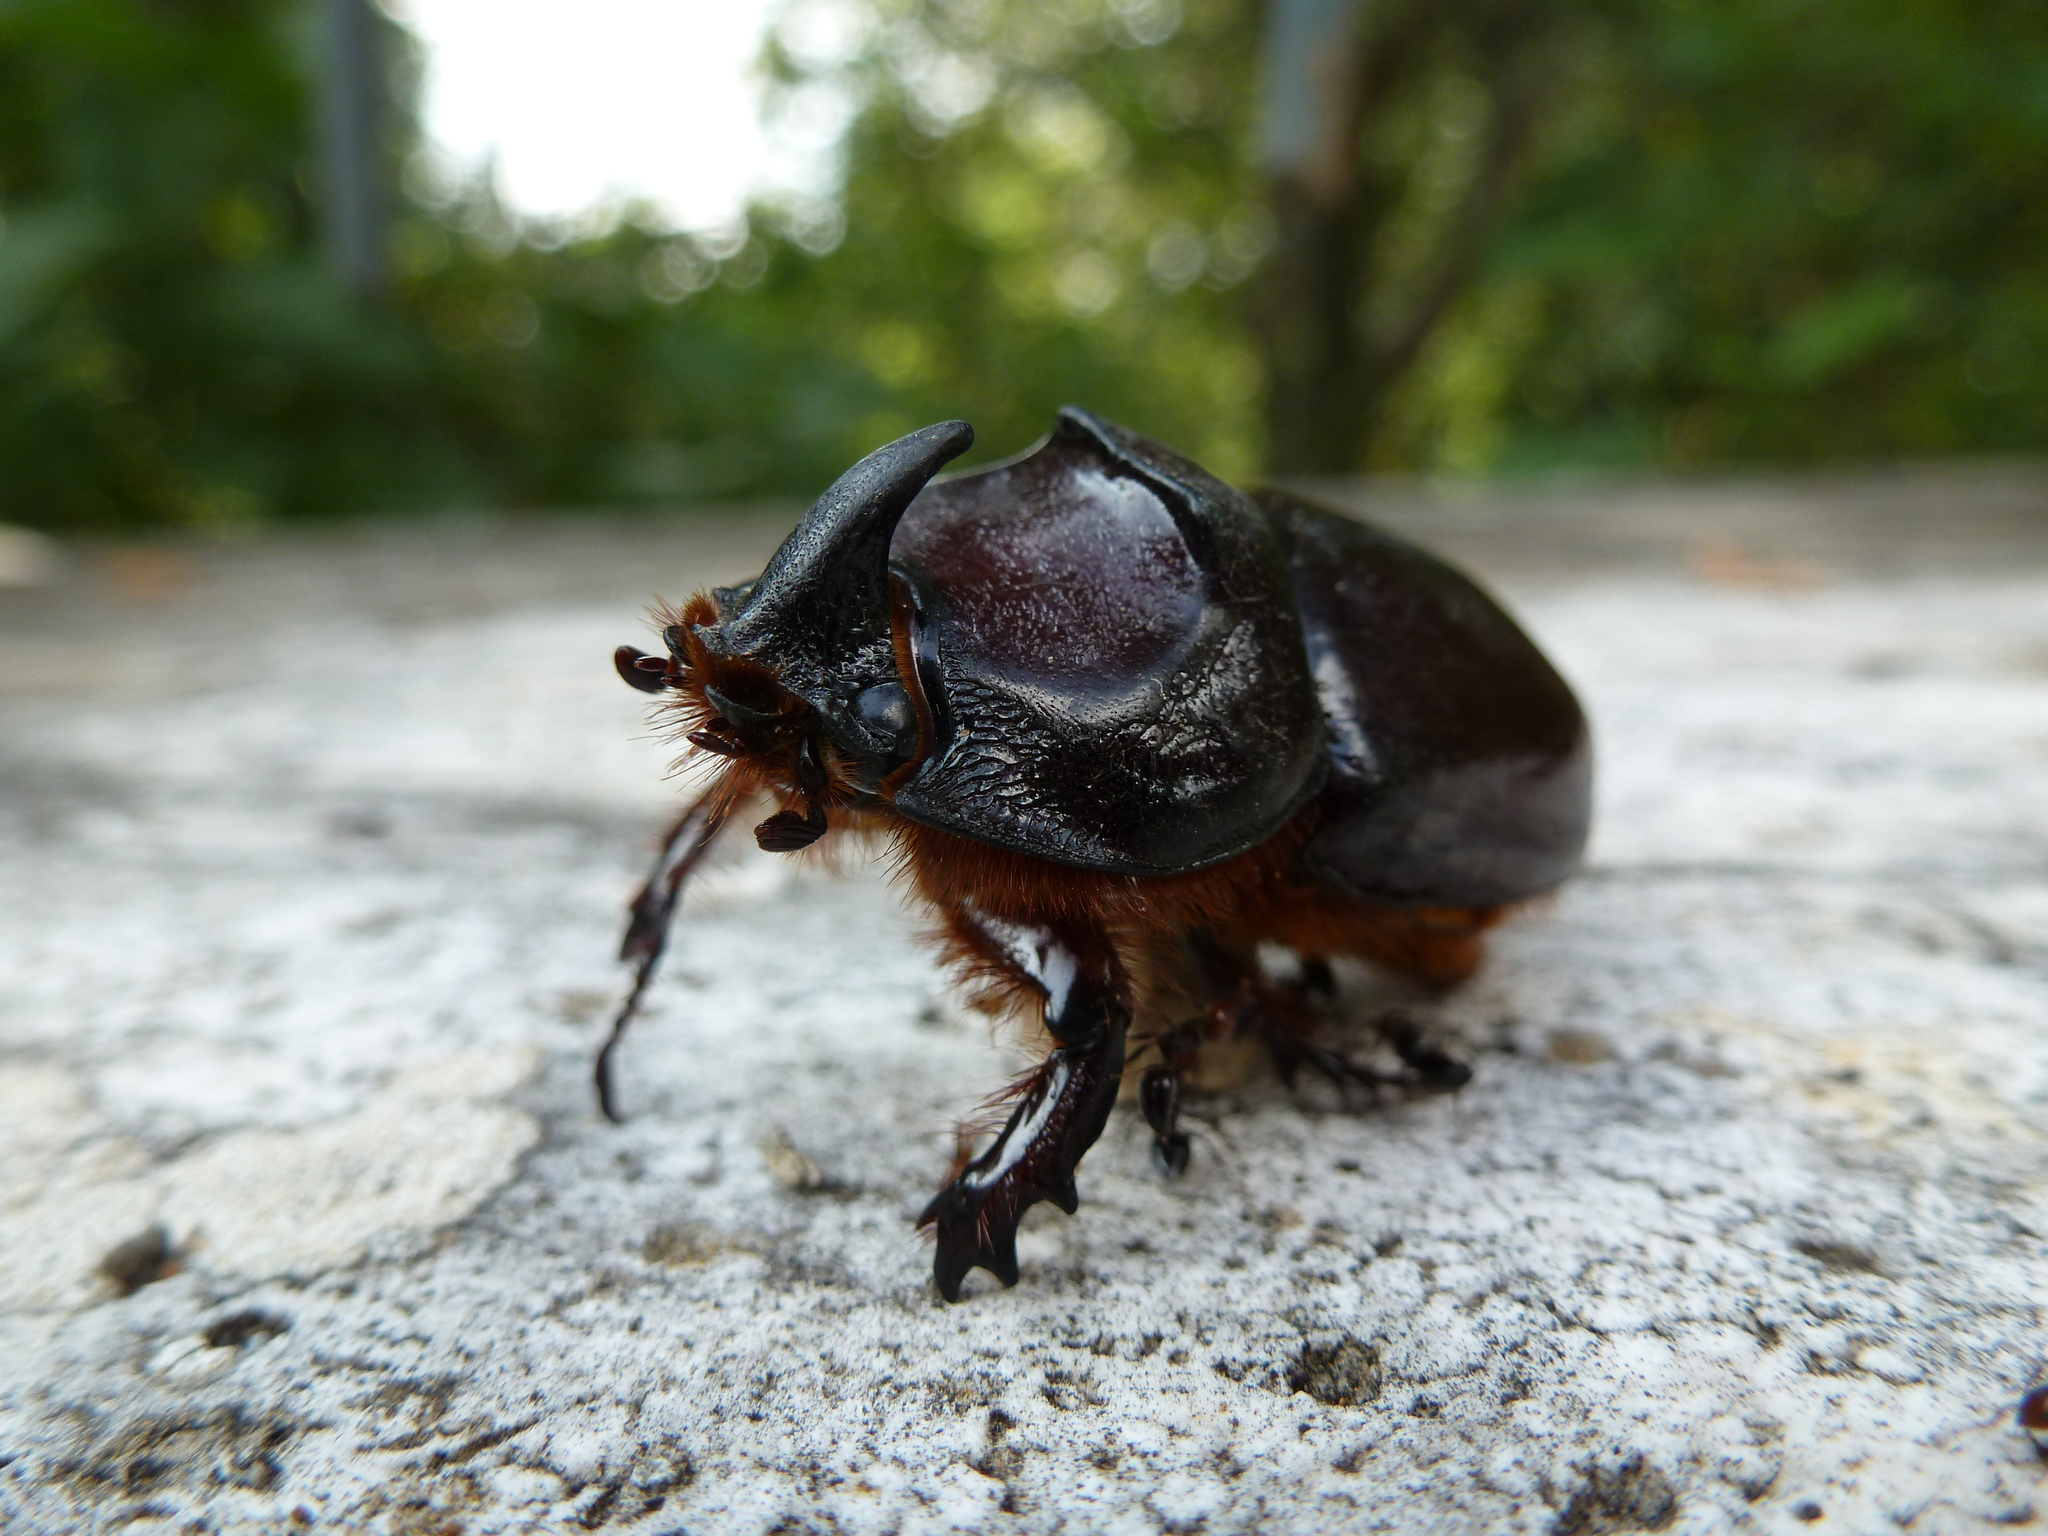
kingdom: Animalia
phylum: Arthropoda
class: Insecta
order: Coleoptera
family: Scarabaeidae
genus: Oryctes
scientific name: Oryctes nasicornis
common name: European rhinoceros beetle
